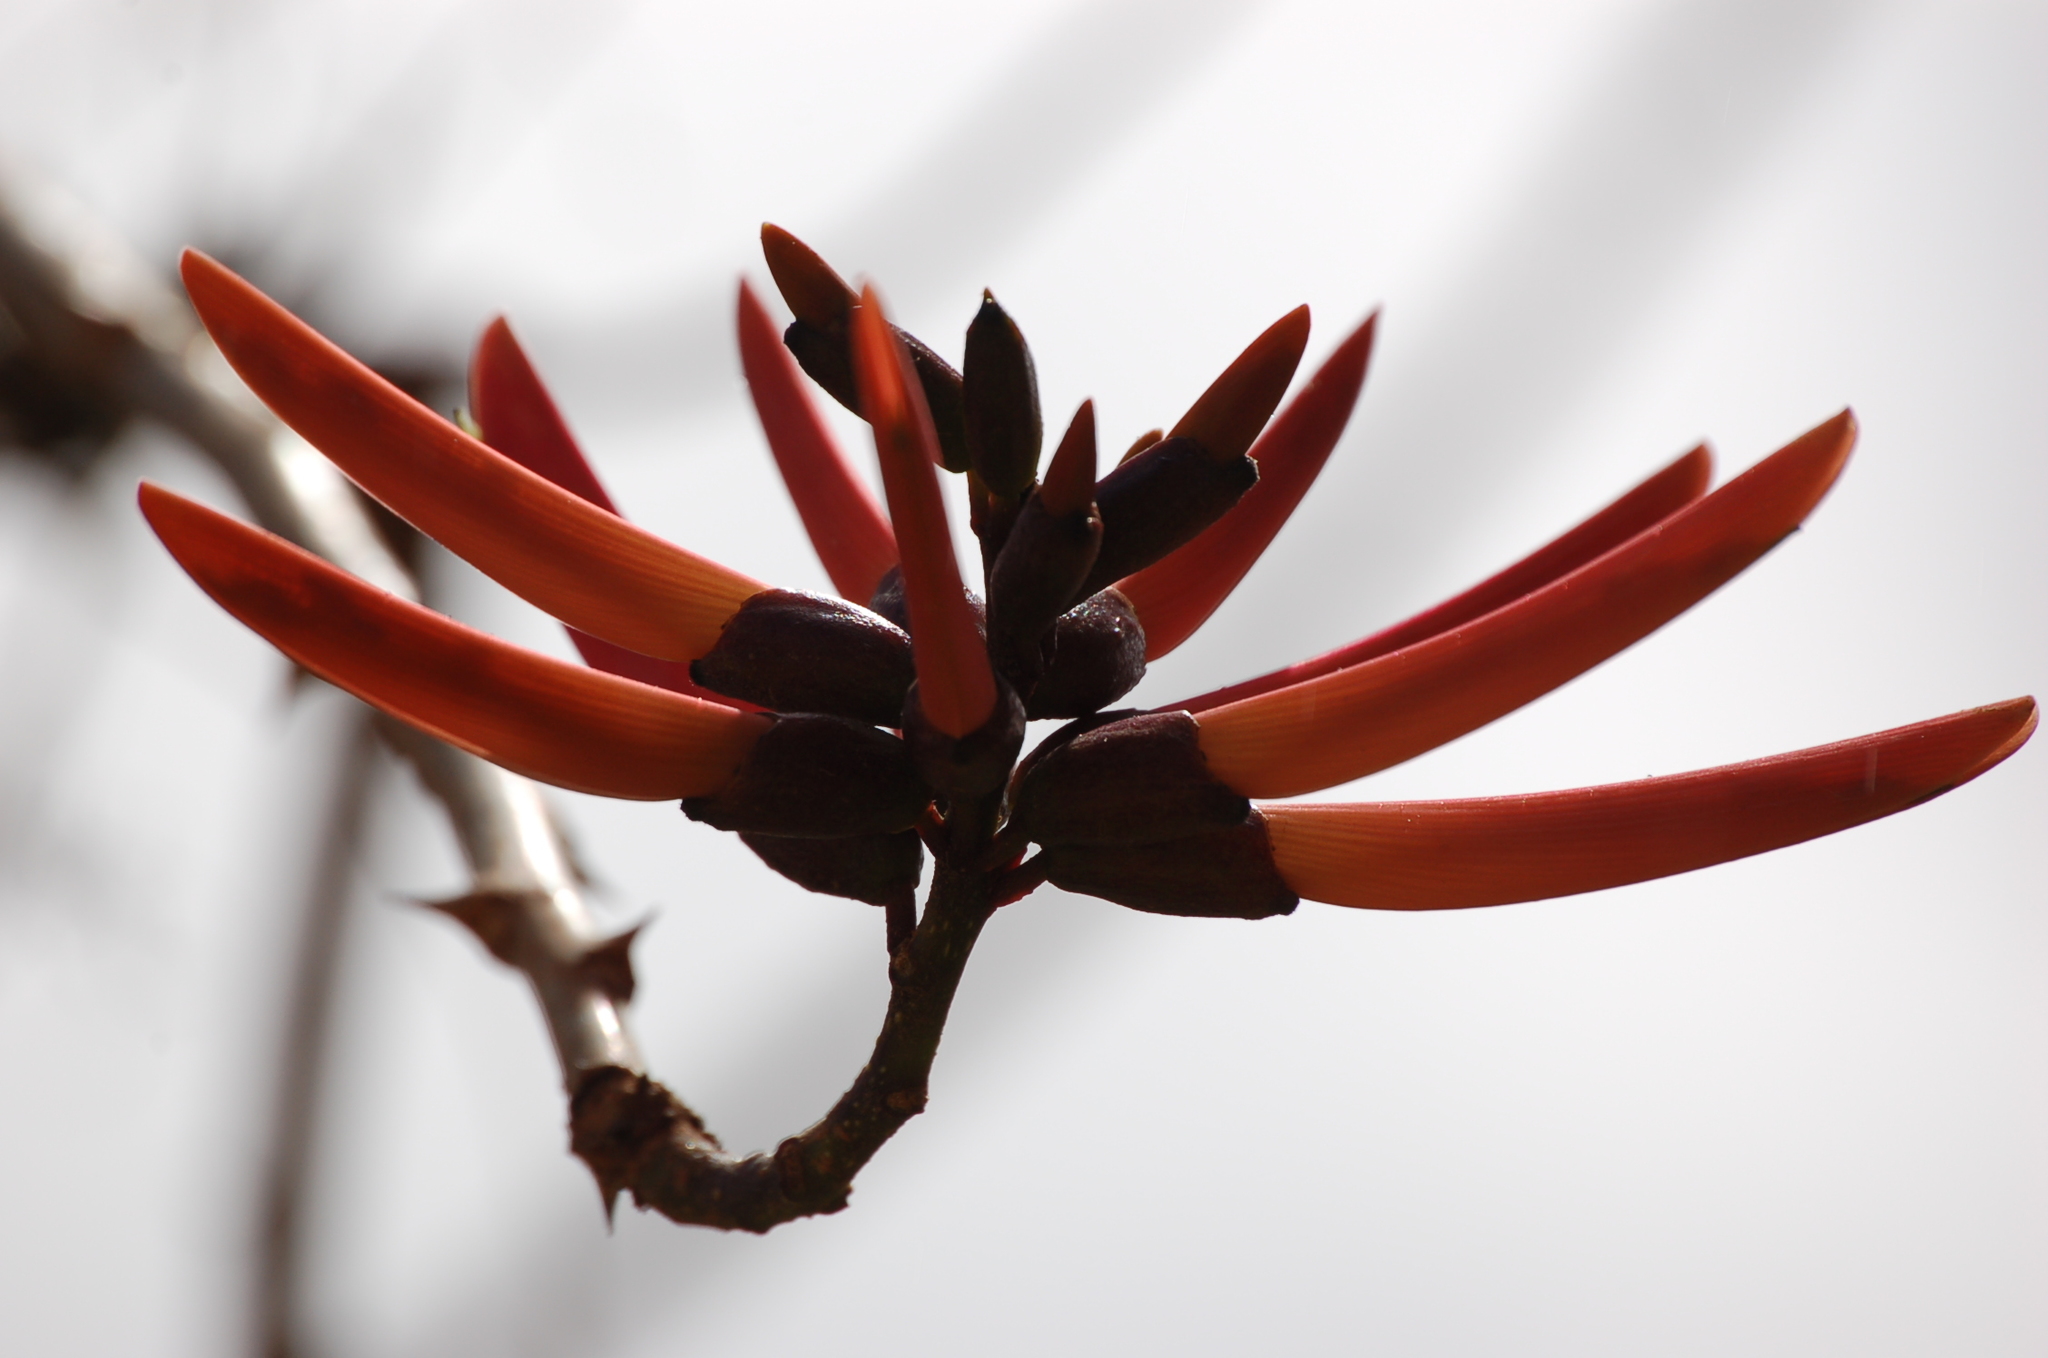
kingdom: Plantae
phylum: Tracheophyta
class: Magnoliopsida
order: Fabales
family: Fabaceae
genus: Erythrina
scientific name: Erythrina goldmanii
